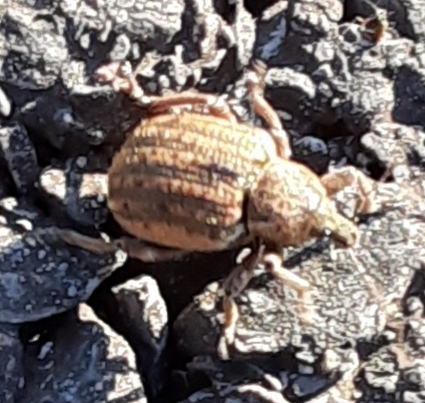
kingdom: Animalia
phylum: Arthropoda
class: Insecta
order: Coleoptera
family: Curculionidae
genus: Brachypera
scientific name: Brachypera zoilus
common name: Clover leaf weevil
